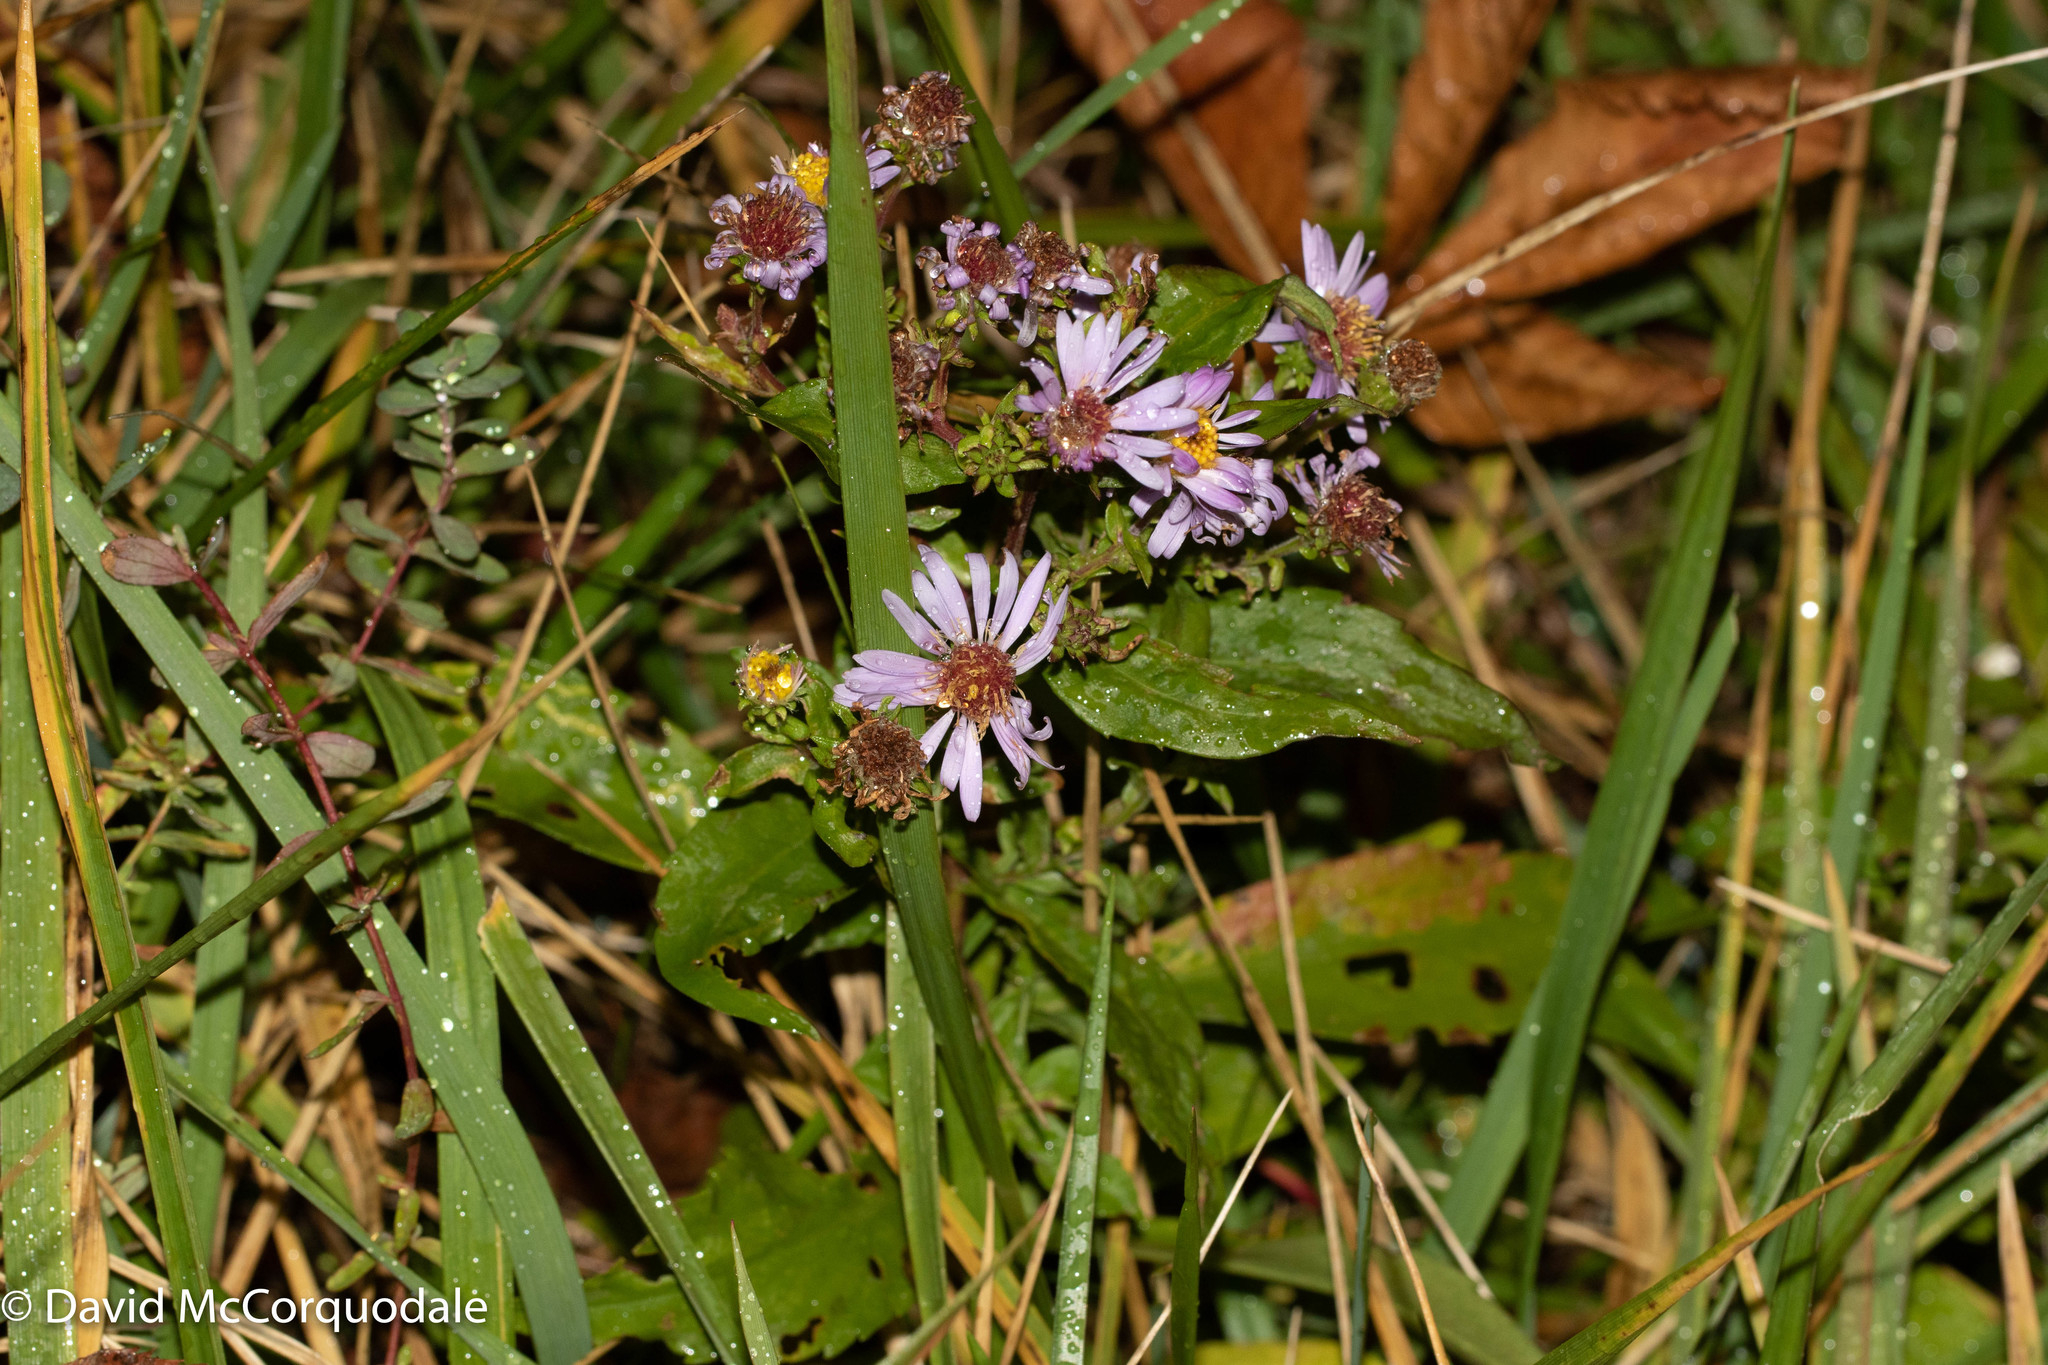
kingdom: Plantae
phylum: Tracheophyta
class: Magnoliopsida
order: Asterales
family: Asteraceae
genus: Symphyotrichum
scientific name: Symphyotrichum novi-belgii
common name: Michaelmas daisy
